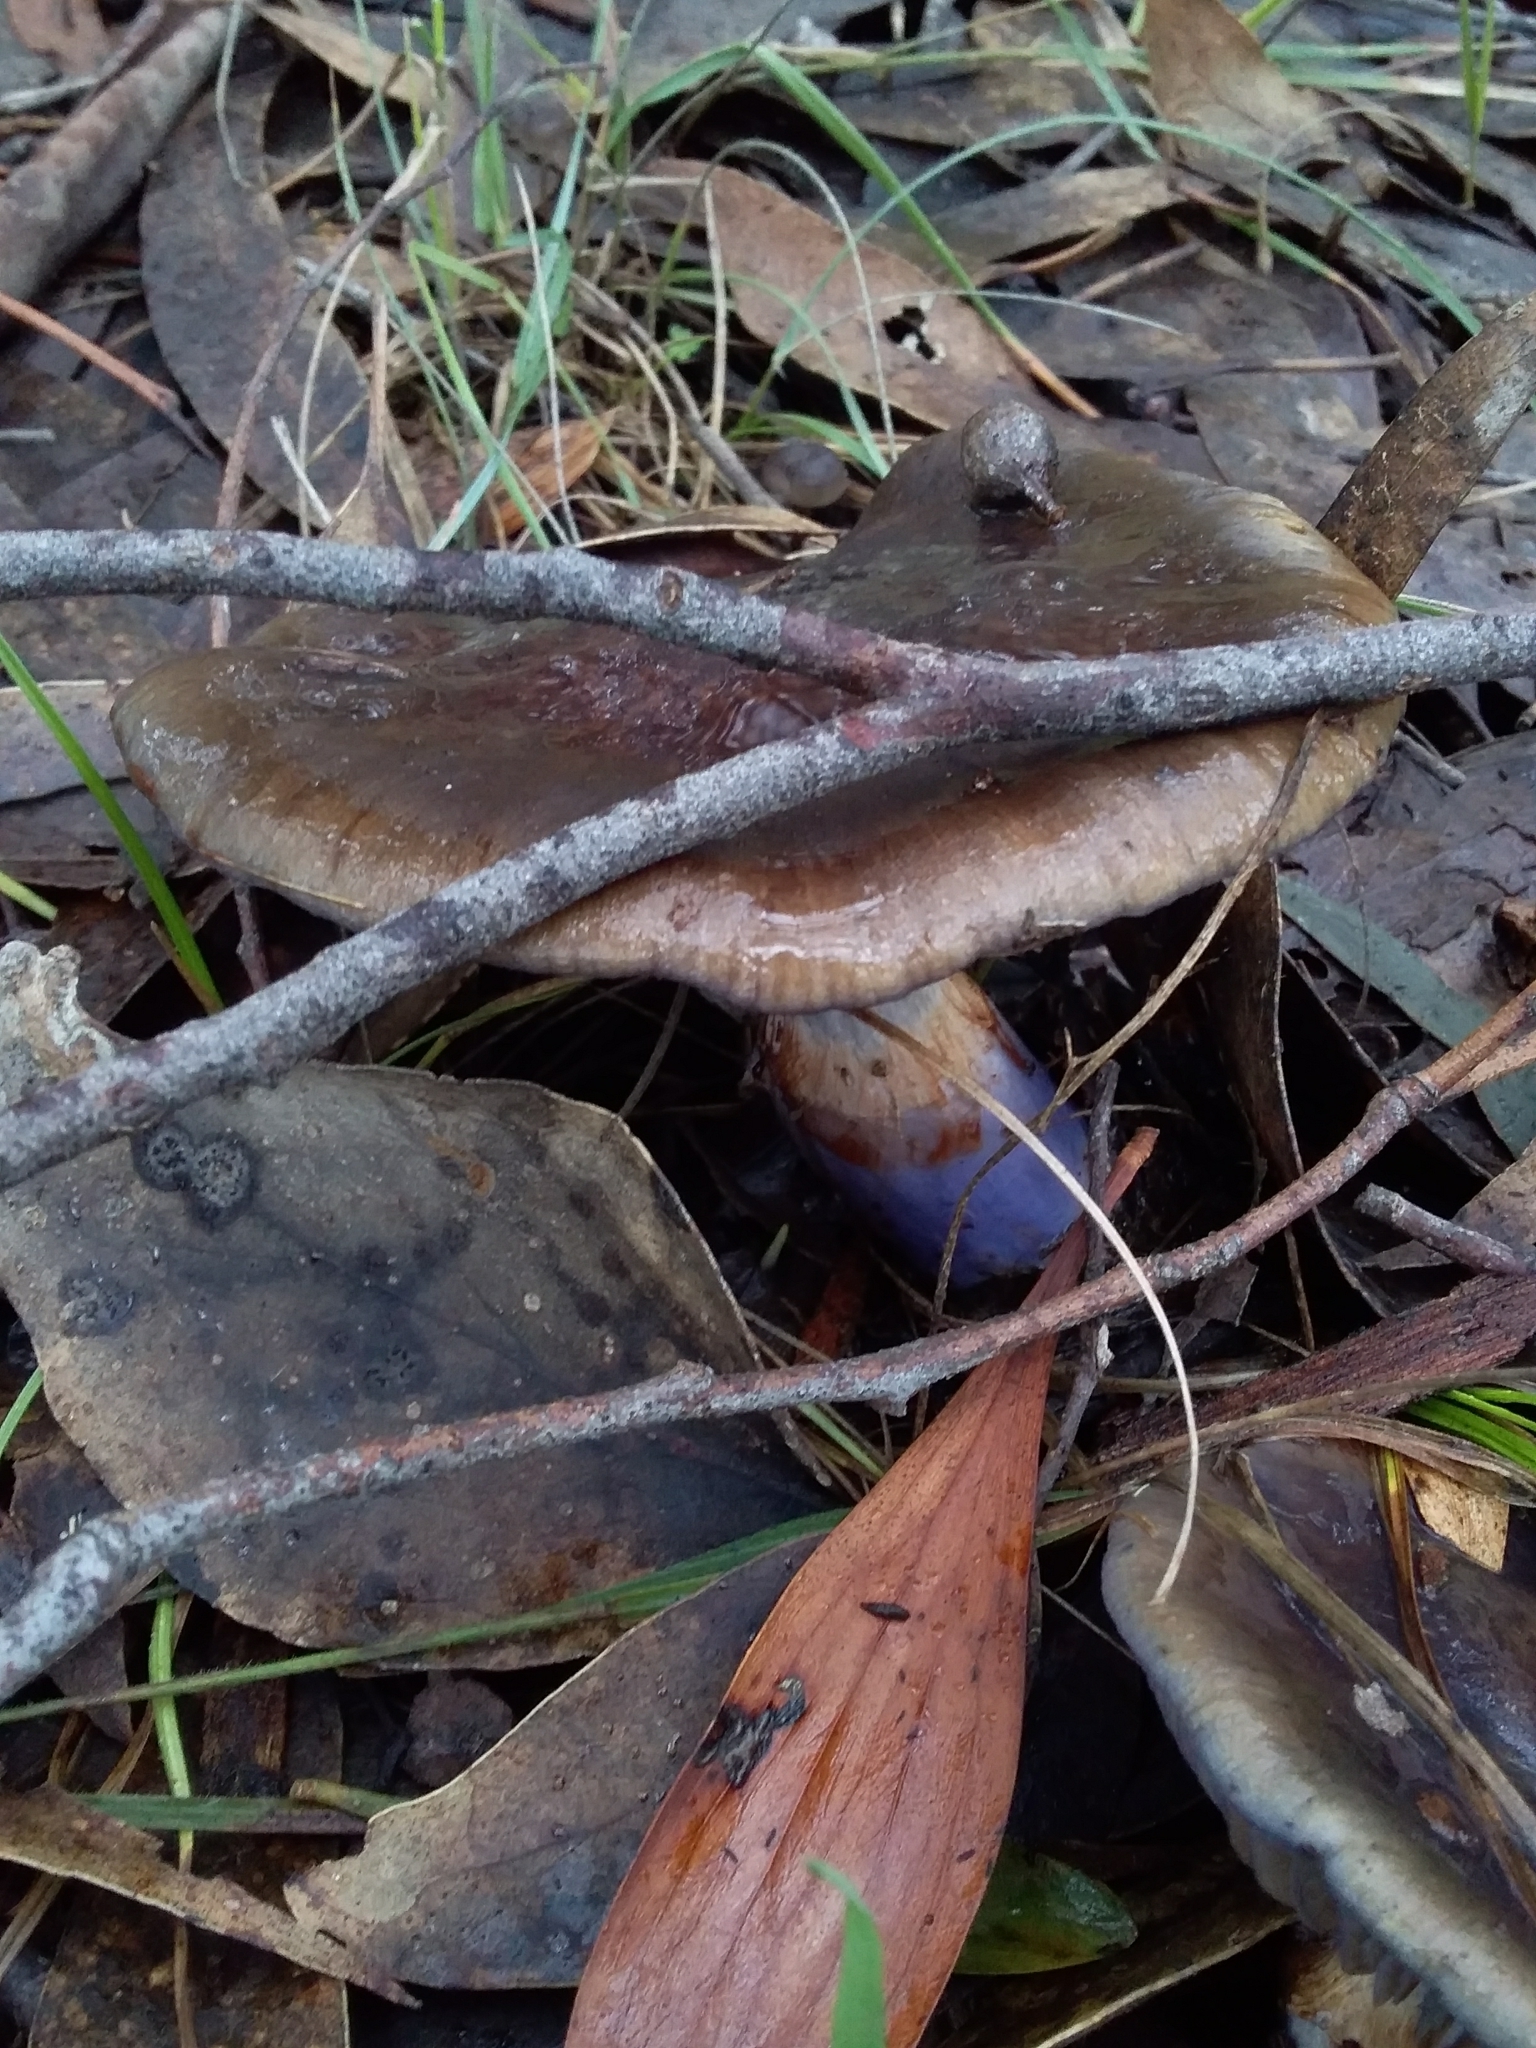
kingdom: Fungi
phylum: Basidiomycota
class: Agaricomycetes
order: Agaricales
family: Cortinariaceae
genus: Cortinarius
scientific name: Cortinarius archeri
